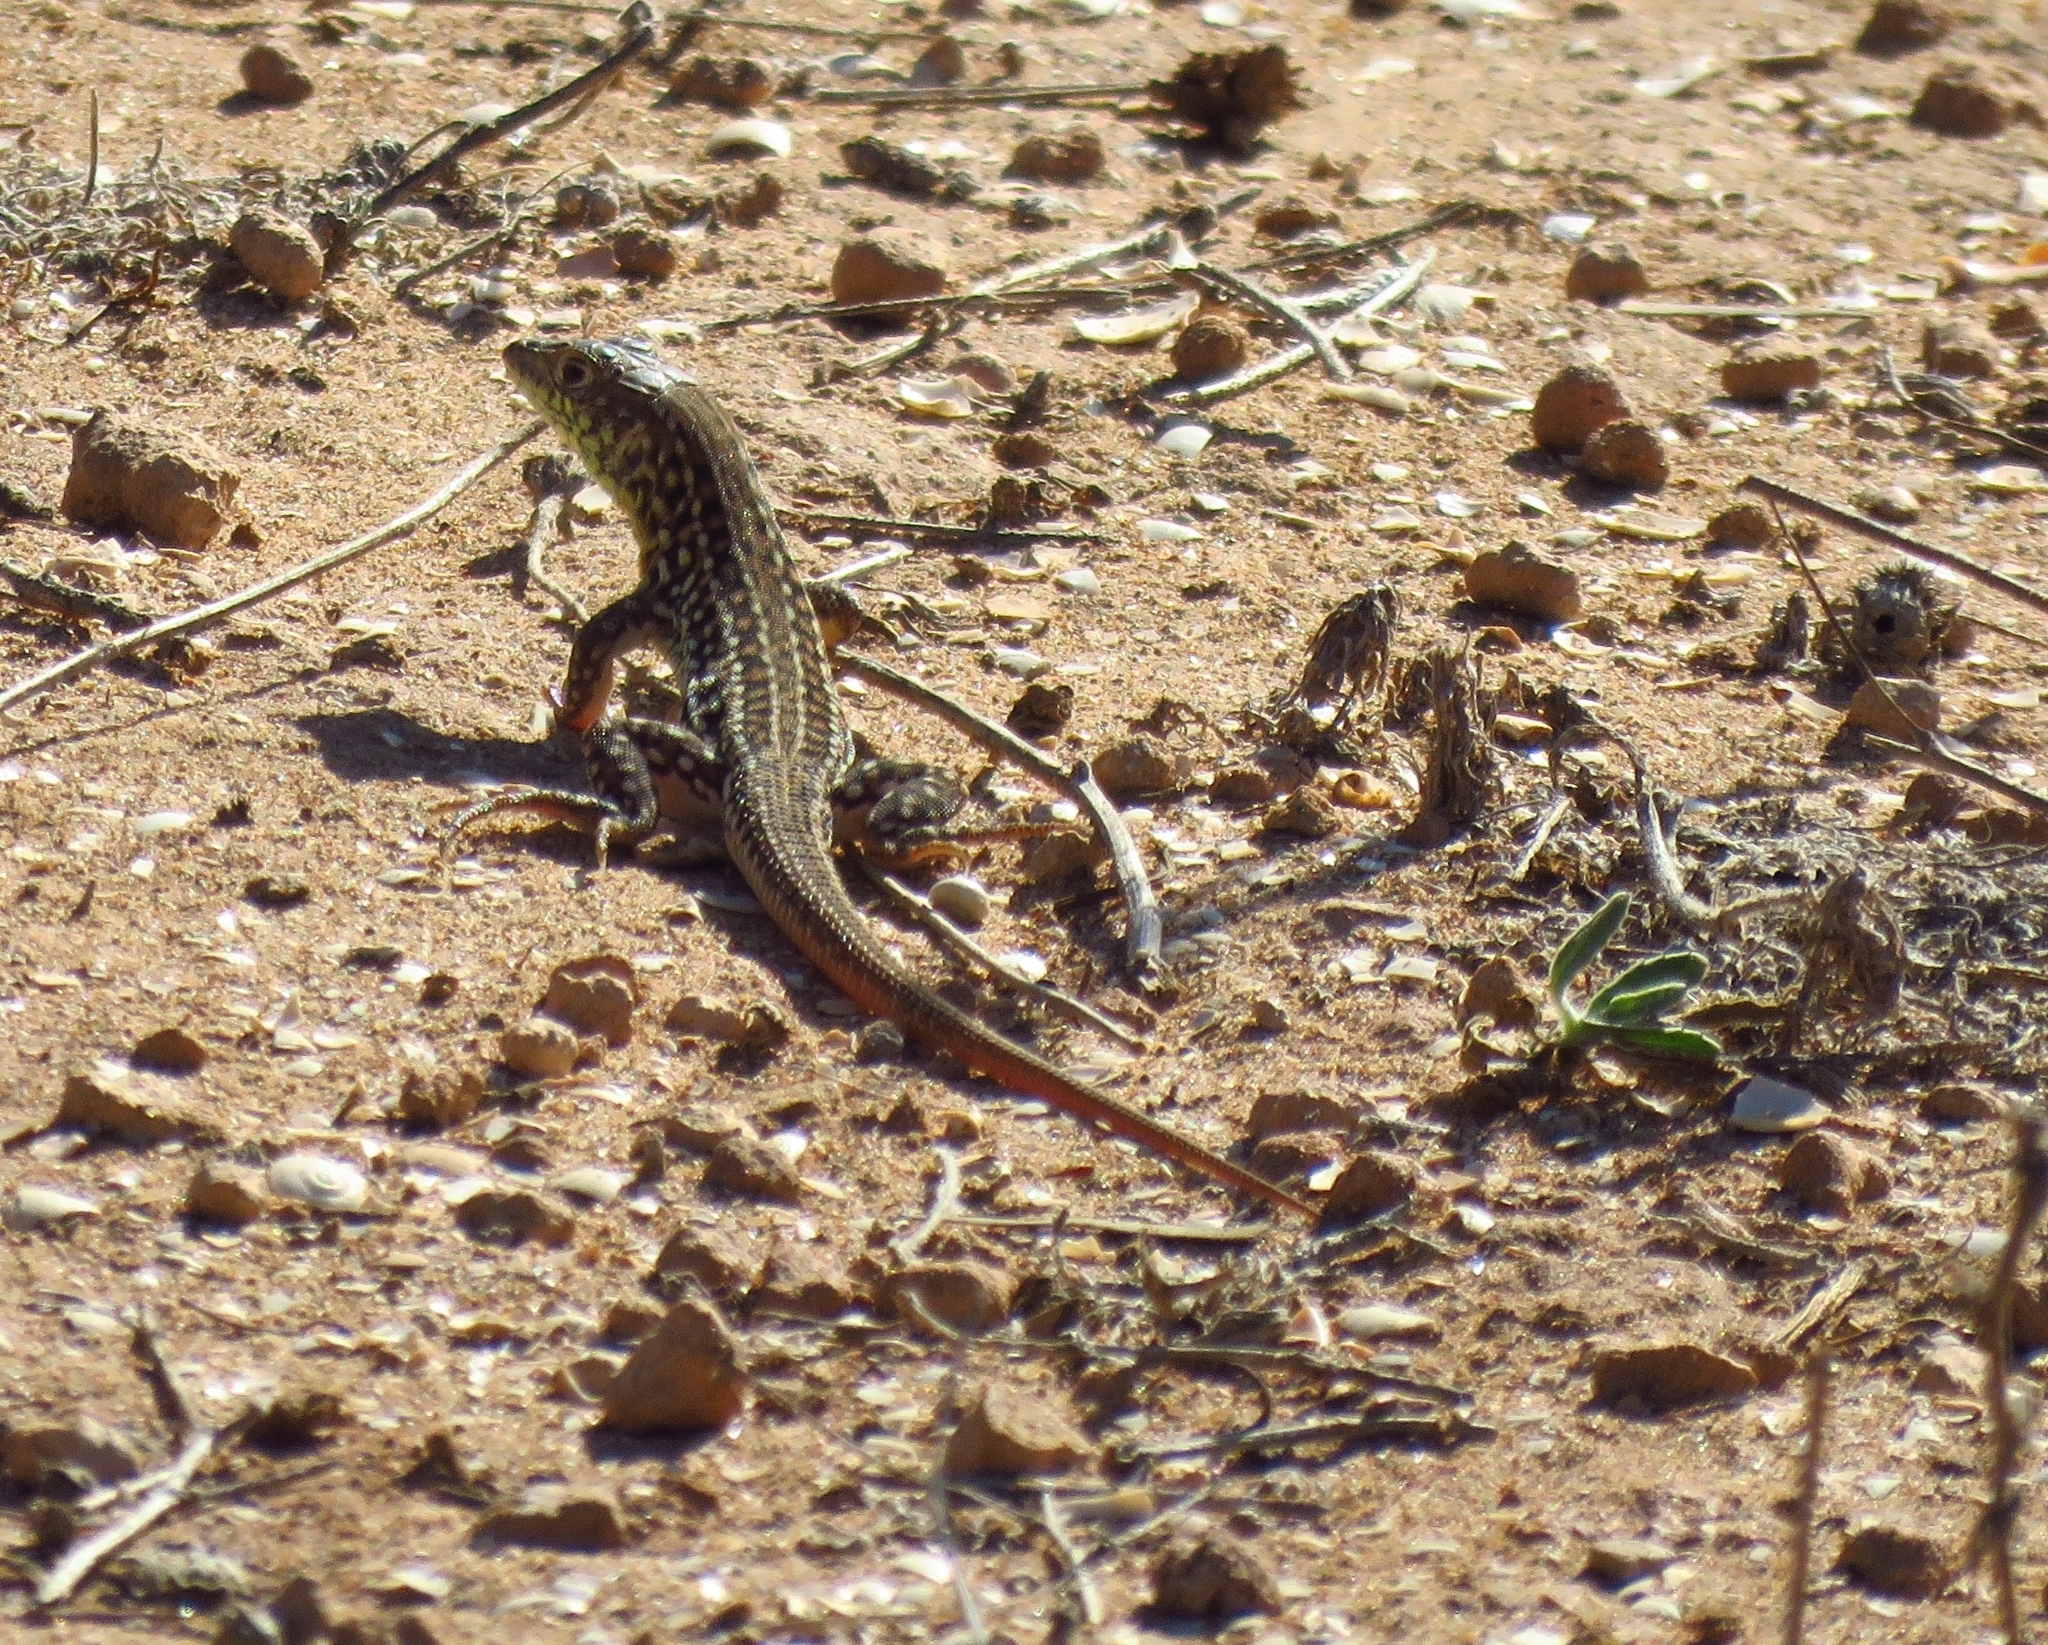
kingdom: Animalia
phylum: Chordata
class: Squamata
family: Lacertidae
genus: Acanthodactylus
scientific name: Acanthodactylus margaritae
